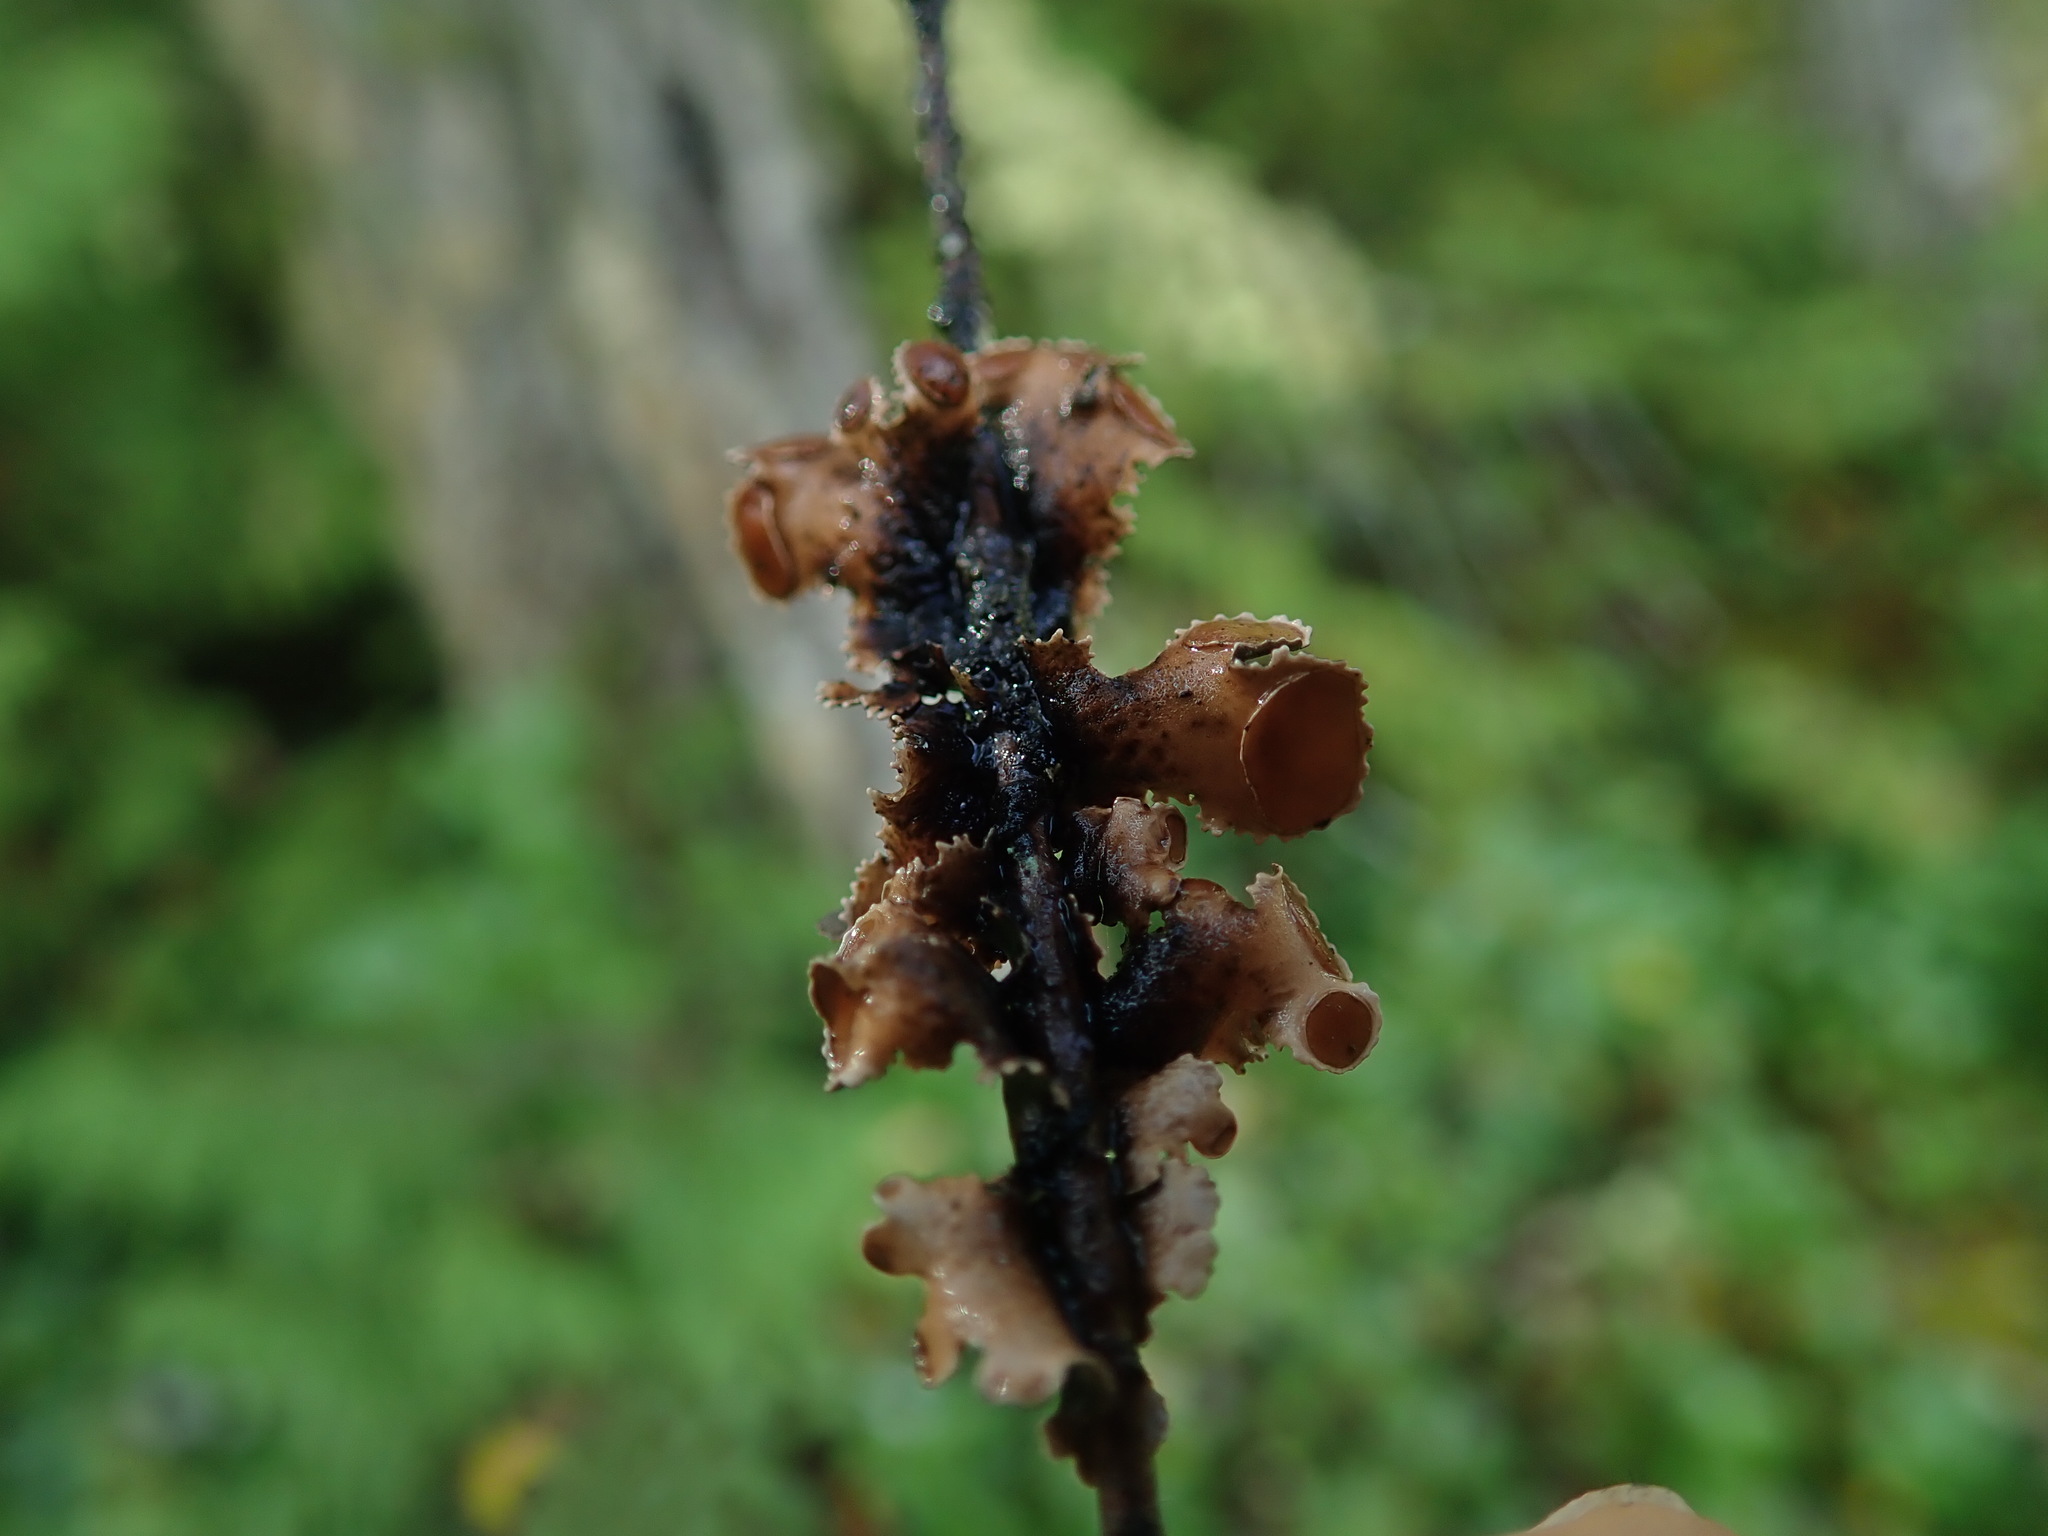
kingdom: Fungi
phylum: Ascomycota
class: Lecanoromycetes
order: Lecanorales
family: Parmeliaceae
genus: Nephromopsis
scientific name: Nephromopsis orbata
